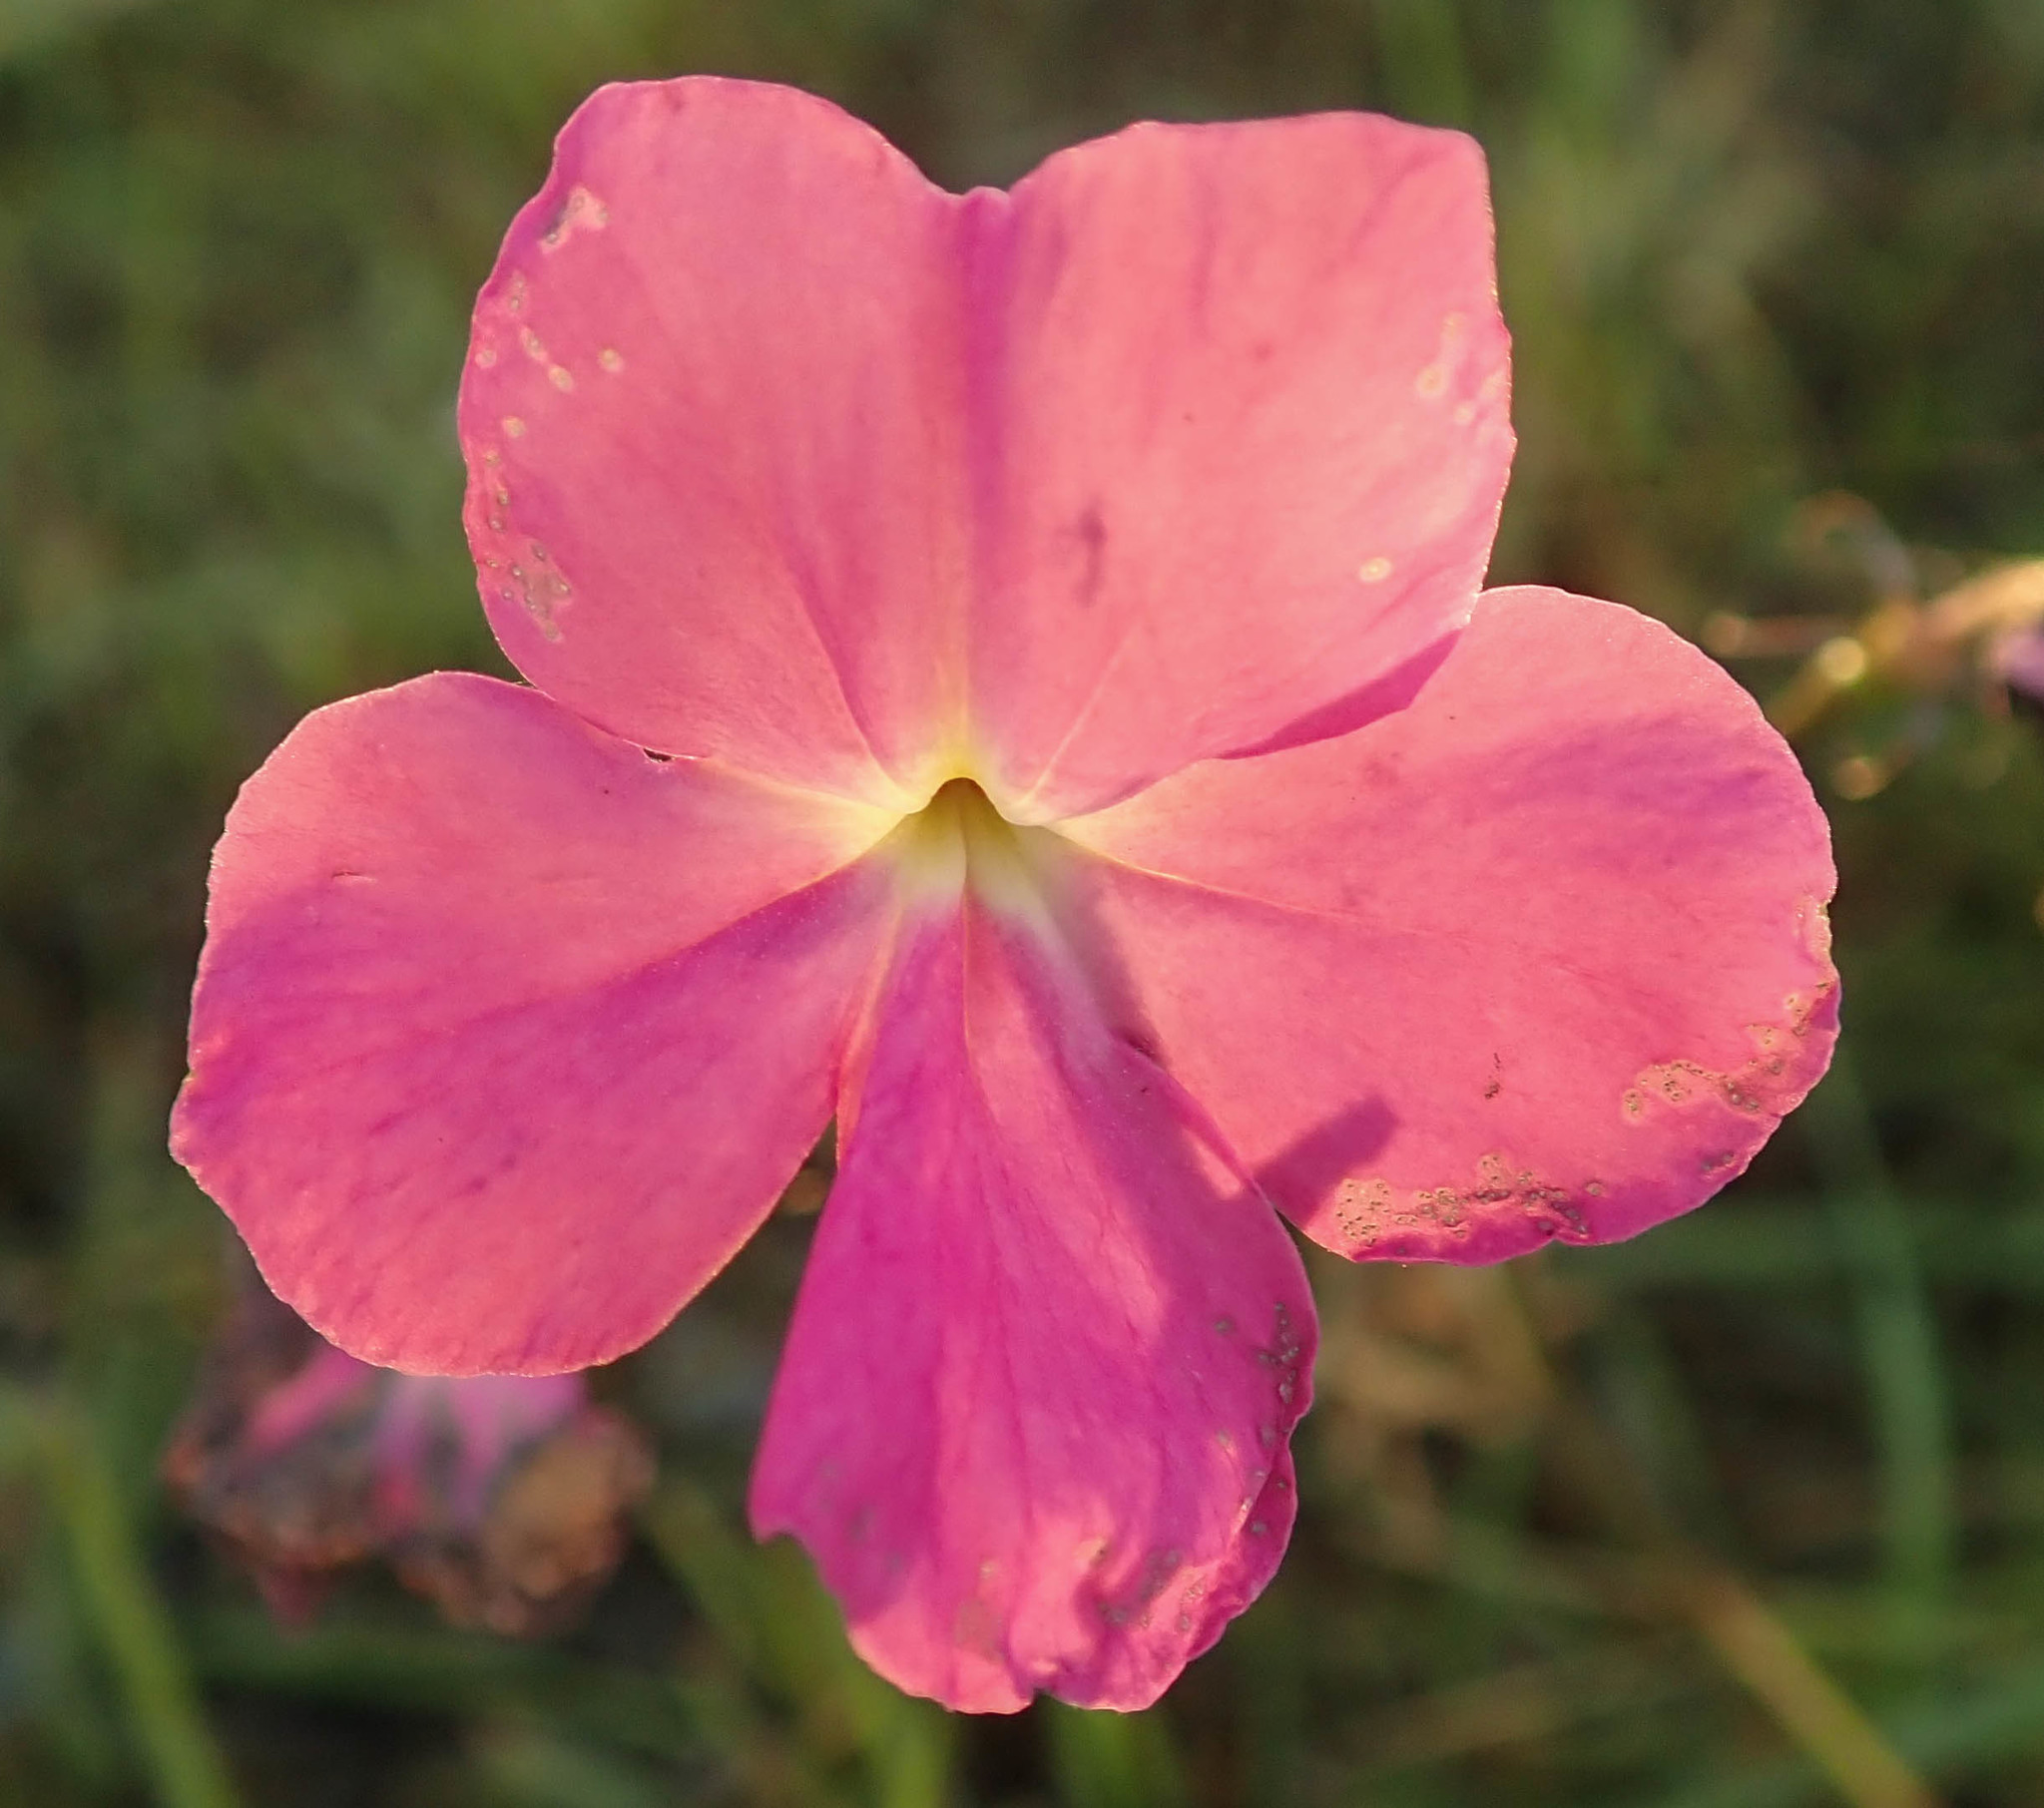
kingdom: Plantae
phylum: Tracheophyta
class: Magnoliopsida
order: Lamiales
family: Orobanchaceae
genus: Cycnium
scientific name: Cycnium tubulosum
